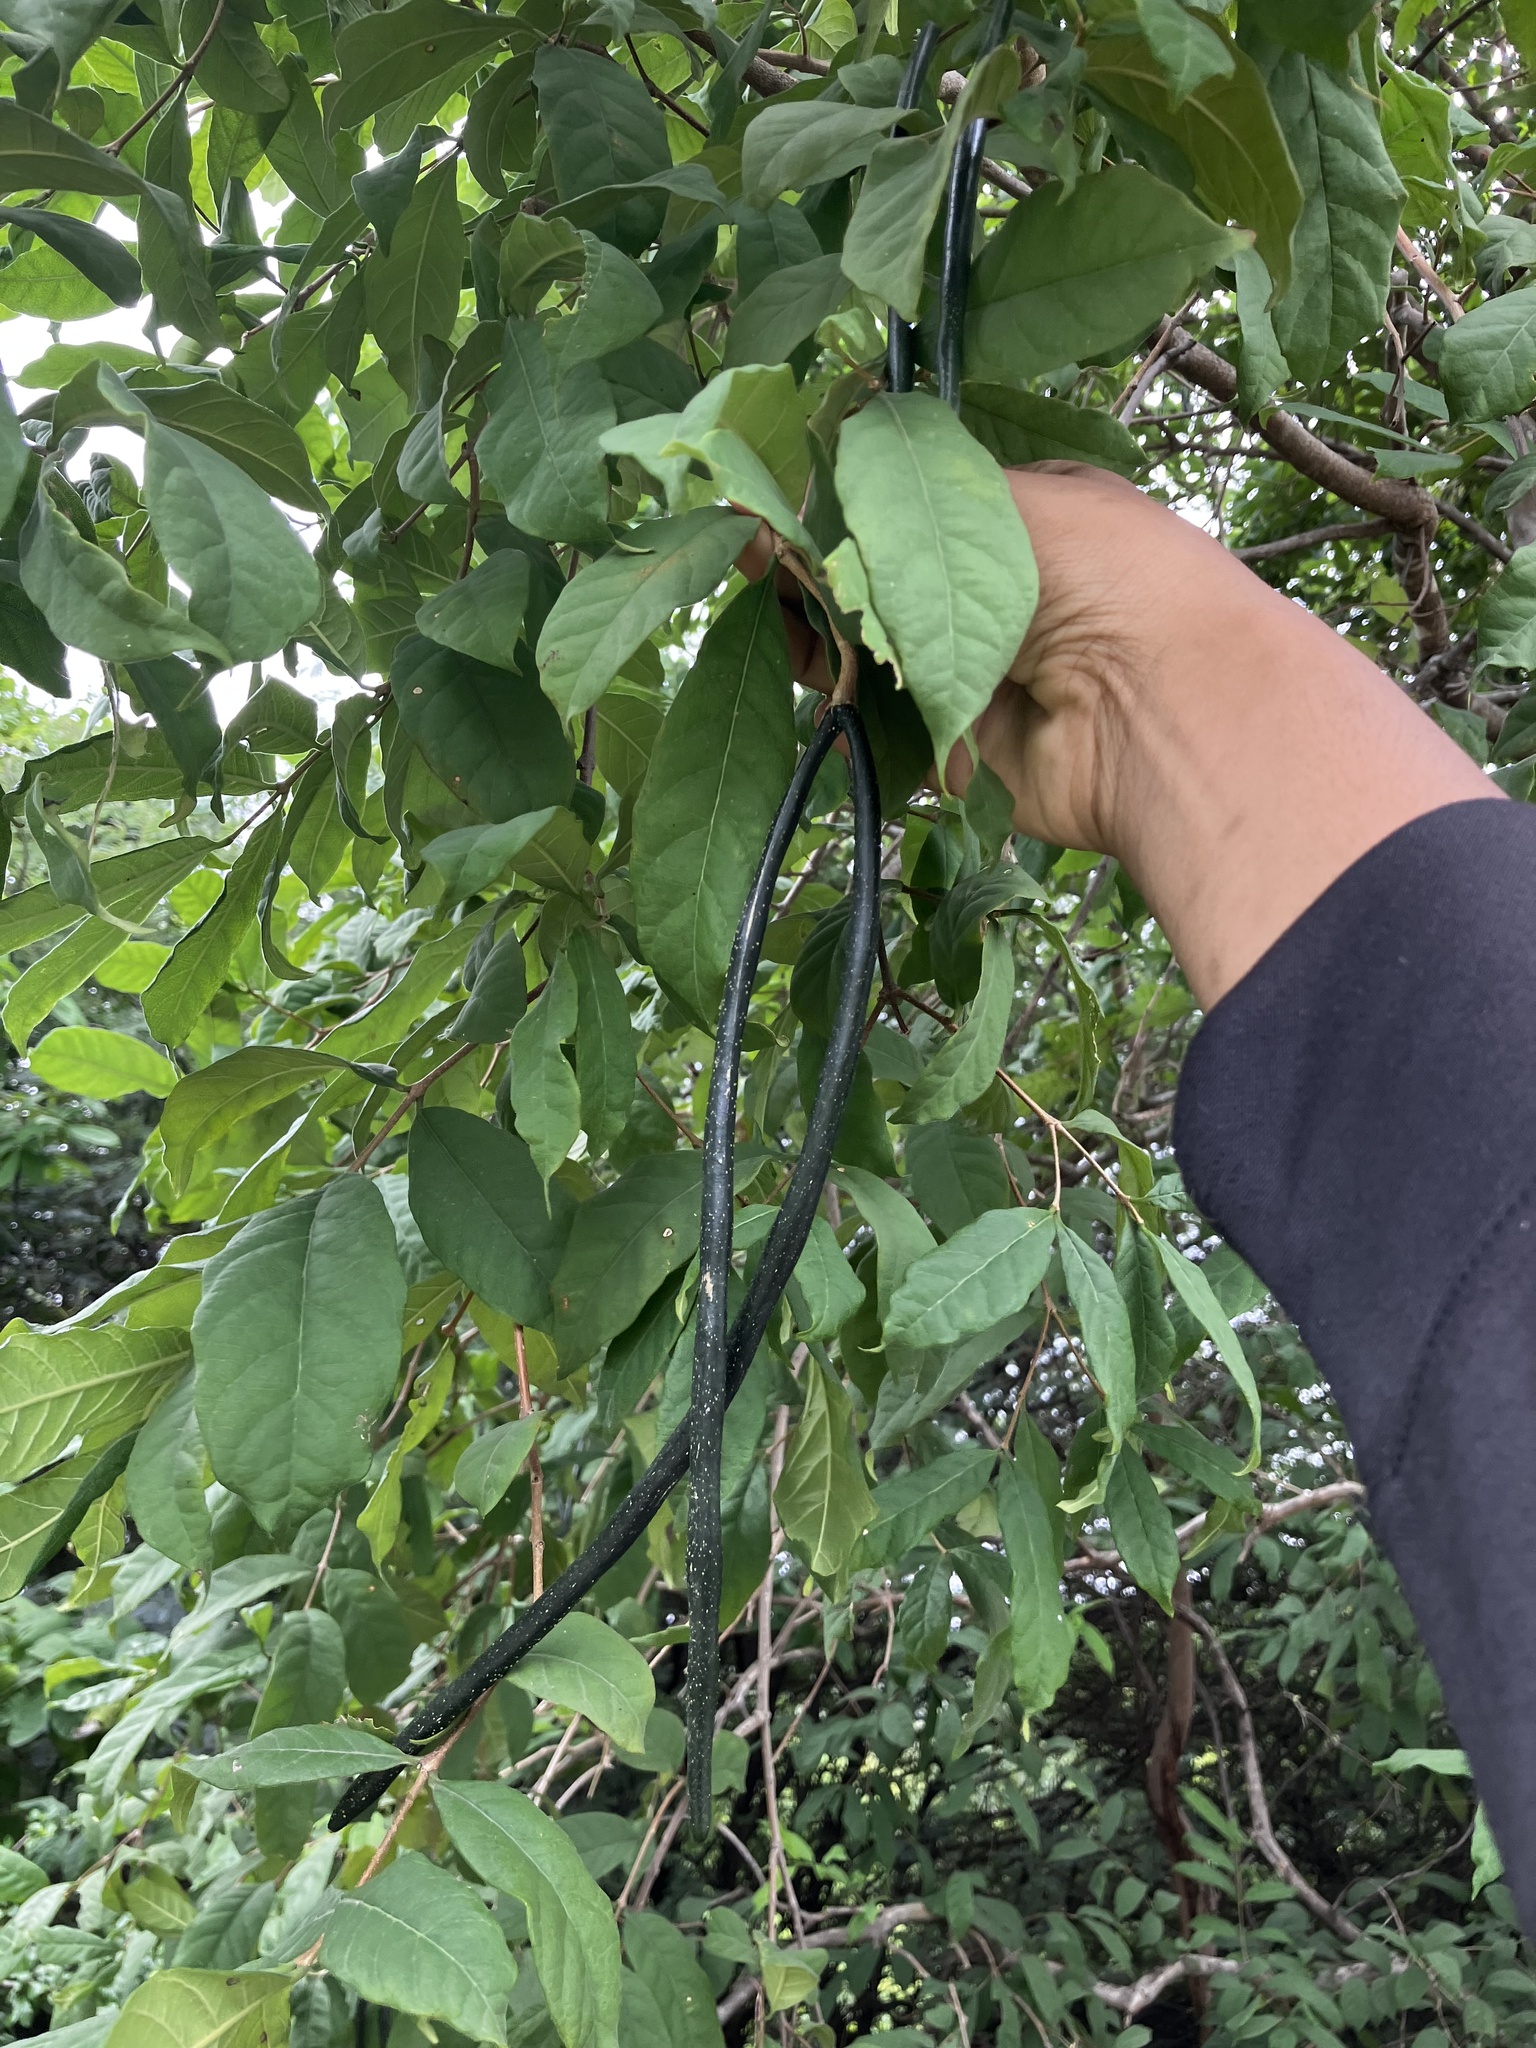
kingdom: Plantae
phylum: Tracheophyta
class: Magnoliopsida
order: Gentianales
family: Apocynaceae
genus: Wrightia
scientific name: Wrightia tinctoria
